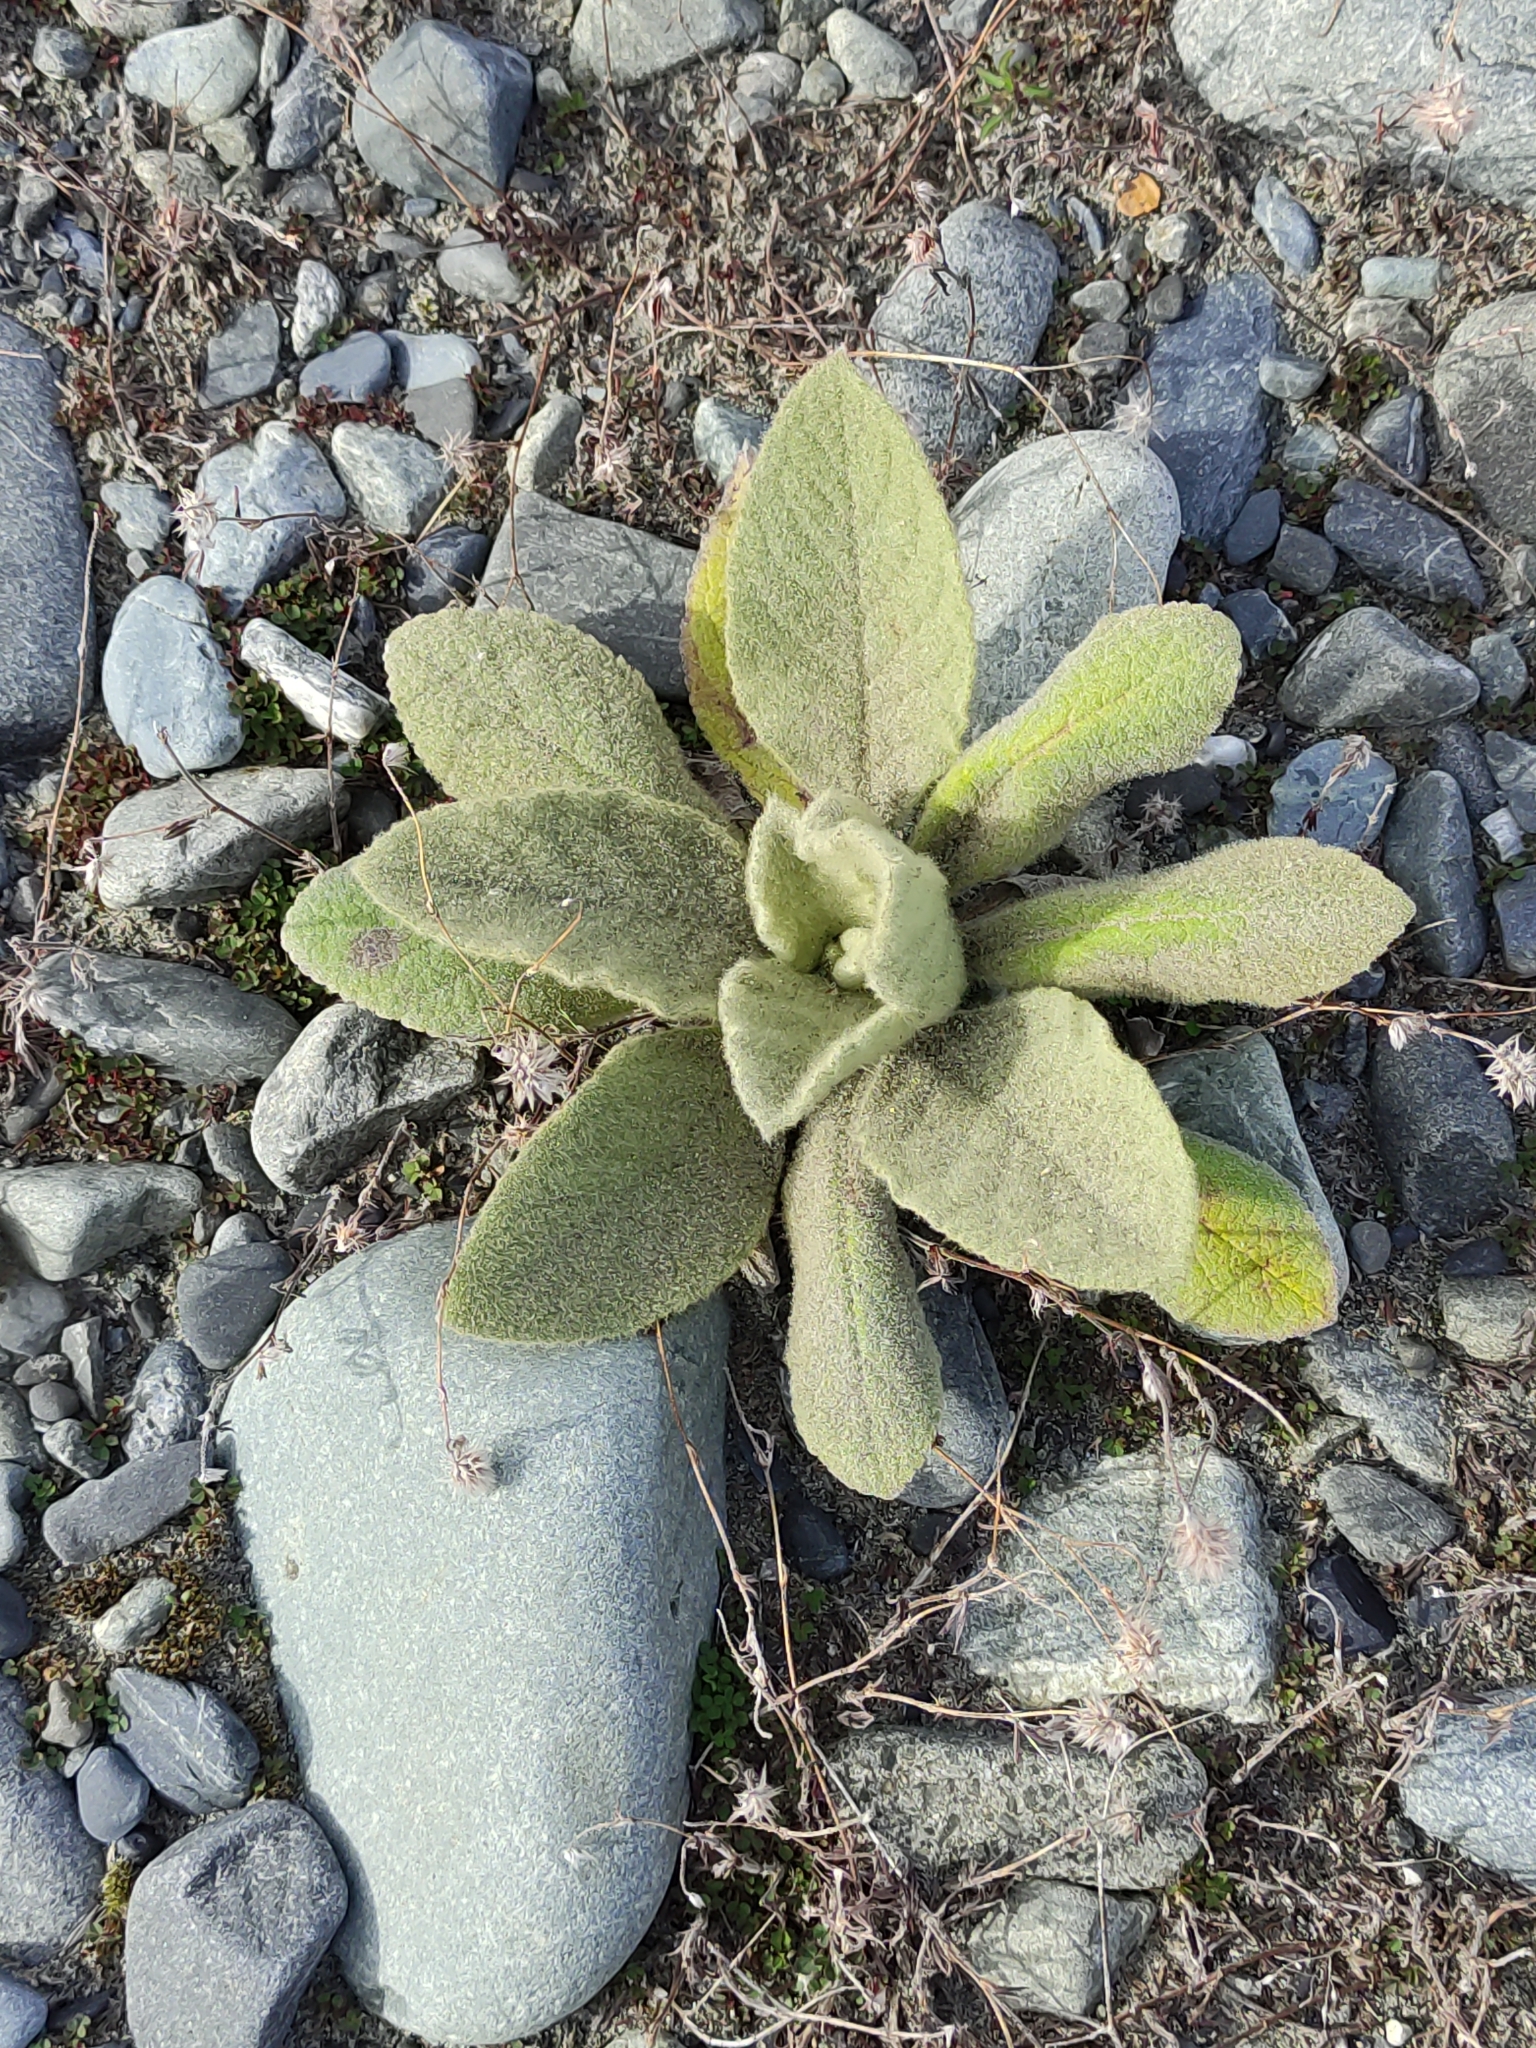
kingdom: Plantae
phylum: Tracheophyta
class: Magnoliopsida
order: Lamiales
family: Scrophulariaceae
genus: Verbascum
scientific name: Verbascum thapsus
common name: Common mullein
